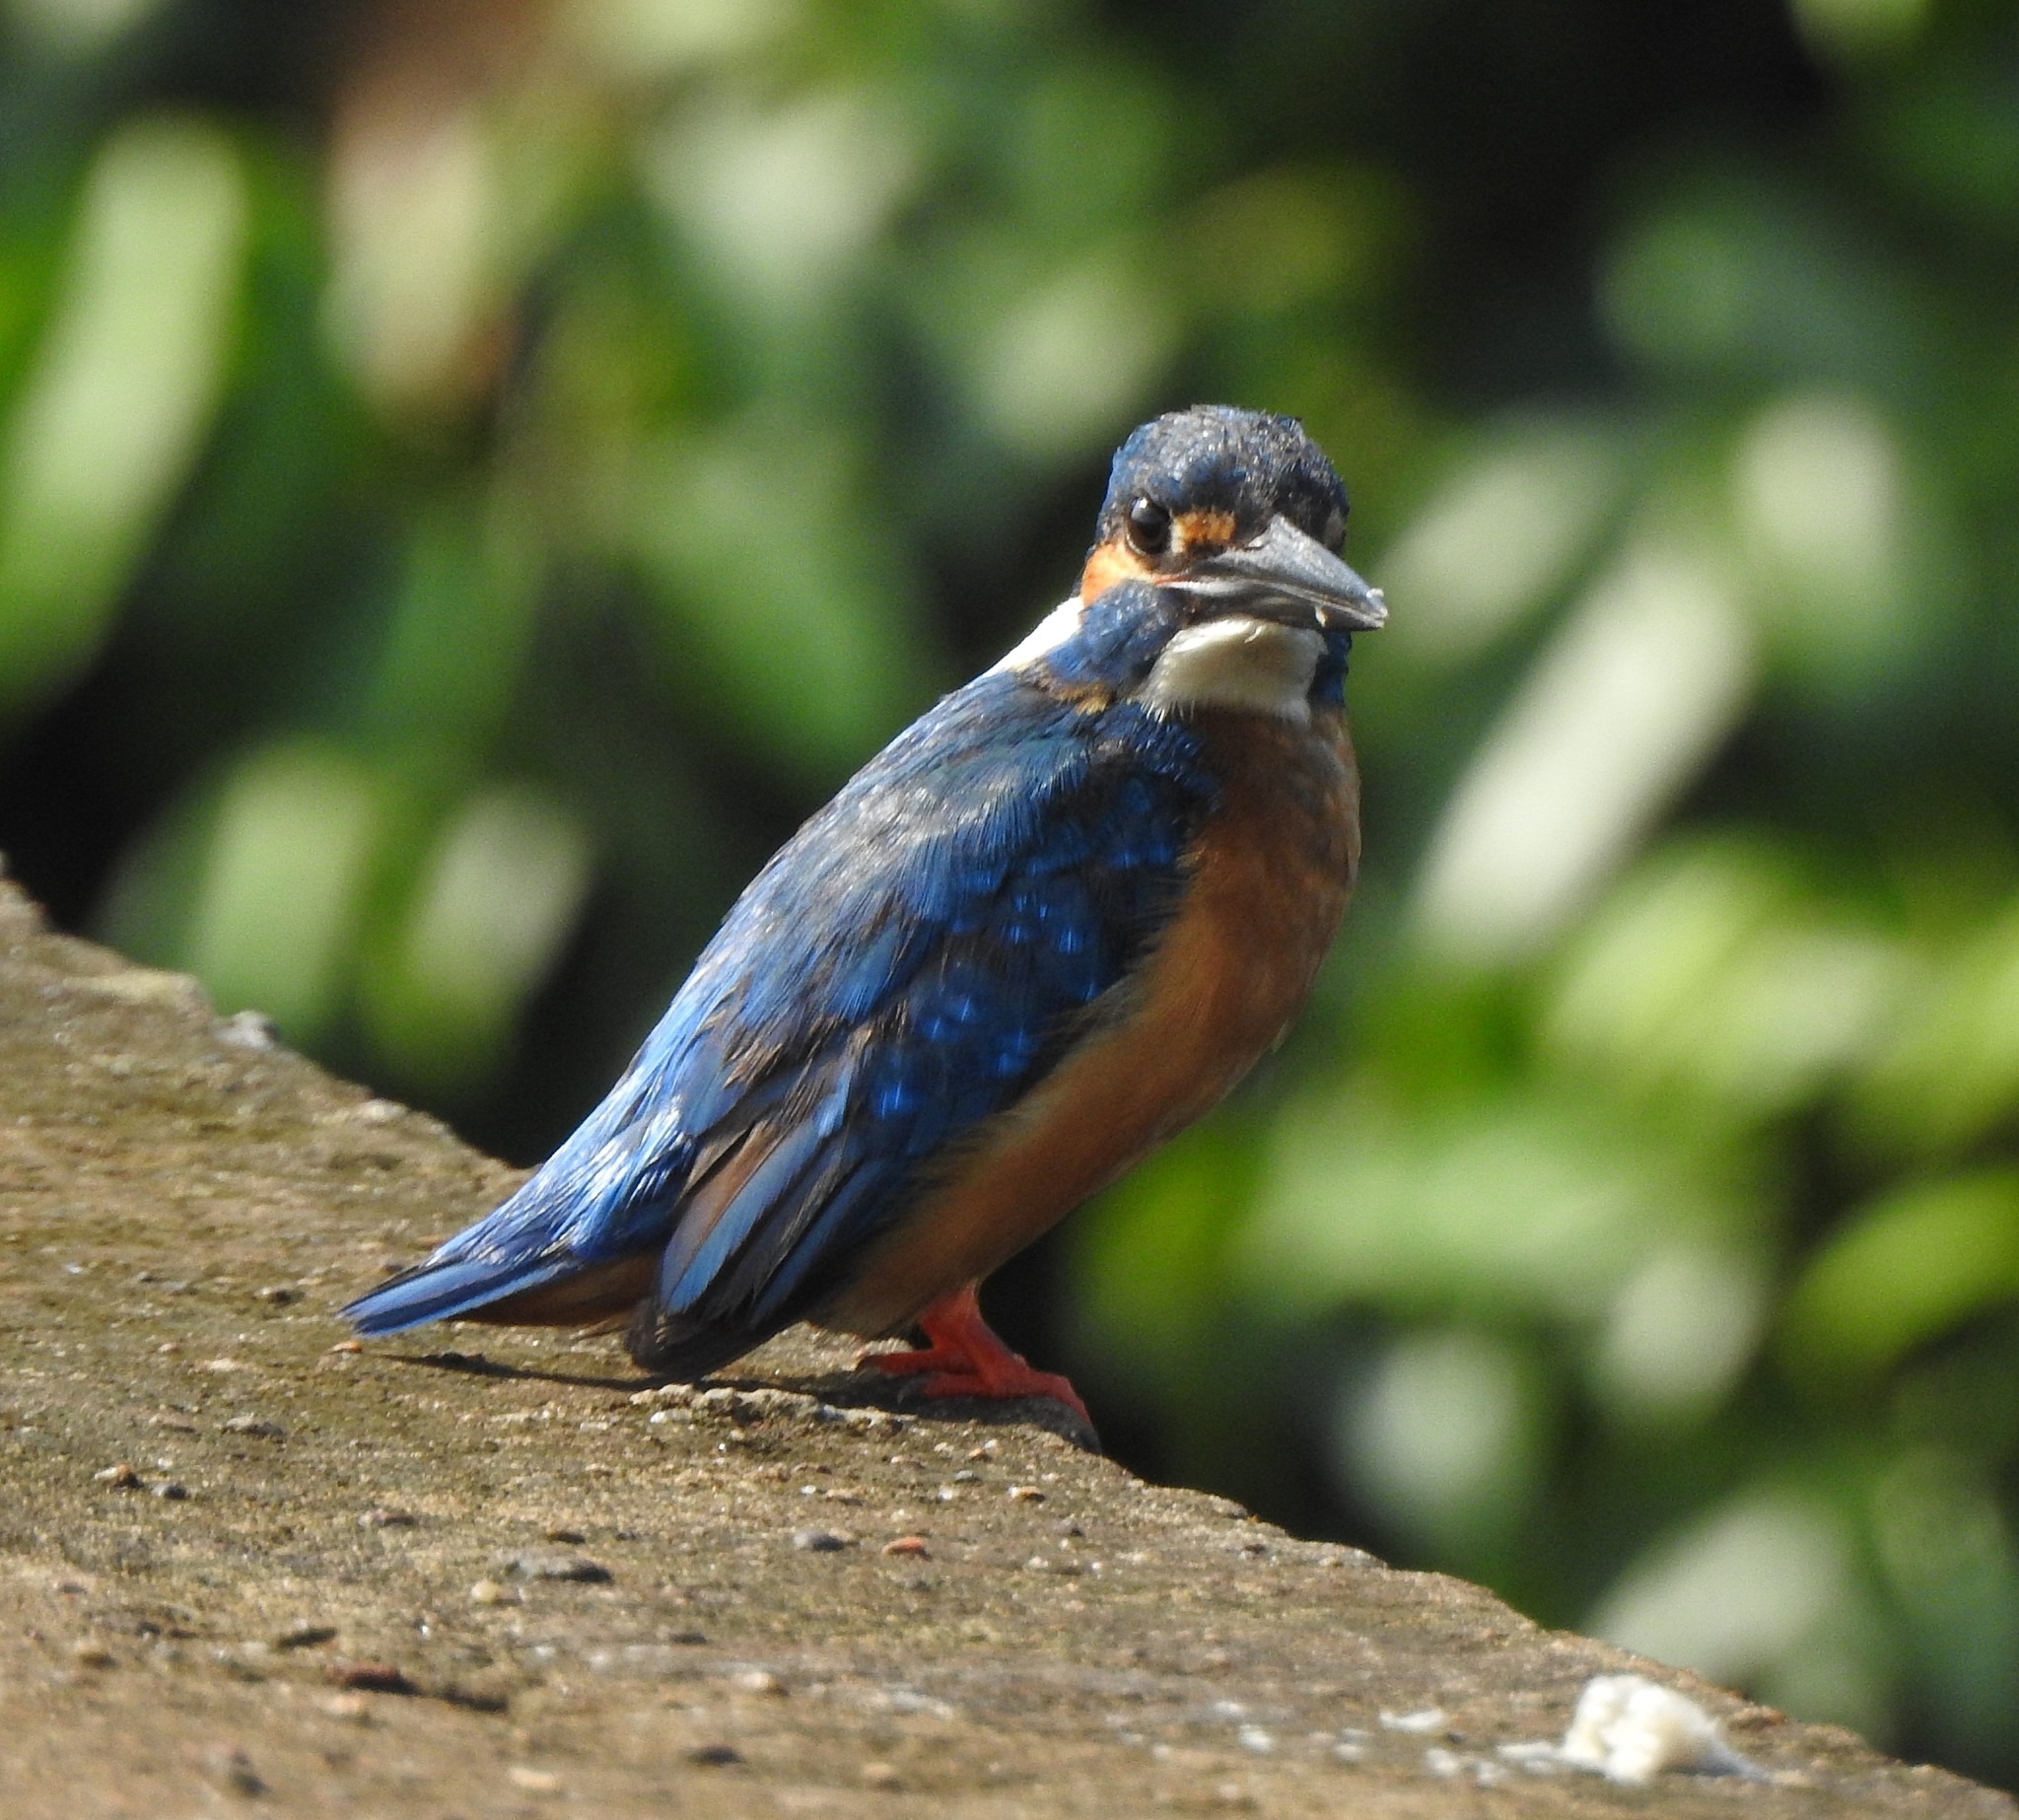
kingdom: Animalia
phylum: Chordata
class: Aves
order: Coraciiformes
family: Alcedinidae
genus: Alcedo
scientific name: Alcedo atthis
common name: Common kingfisher
